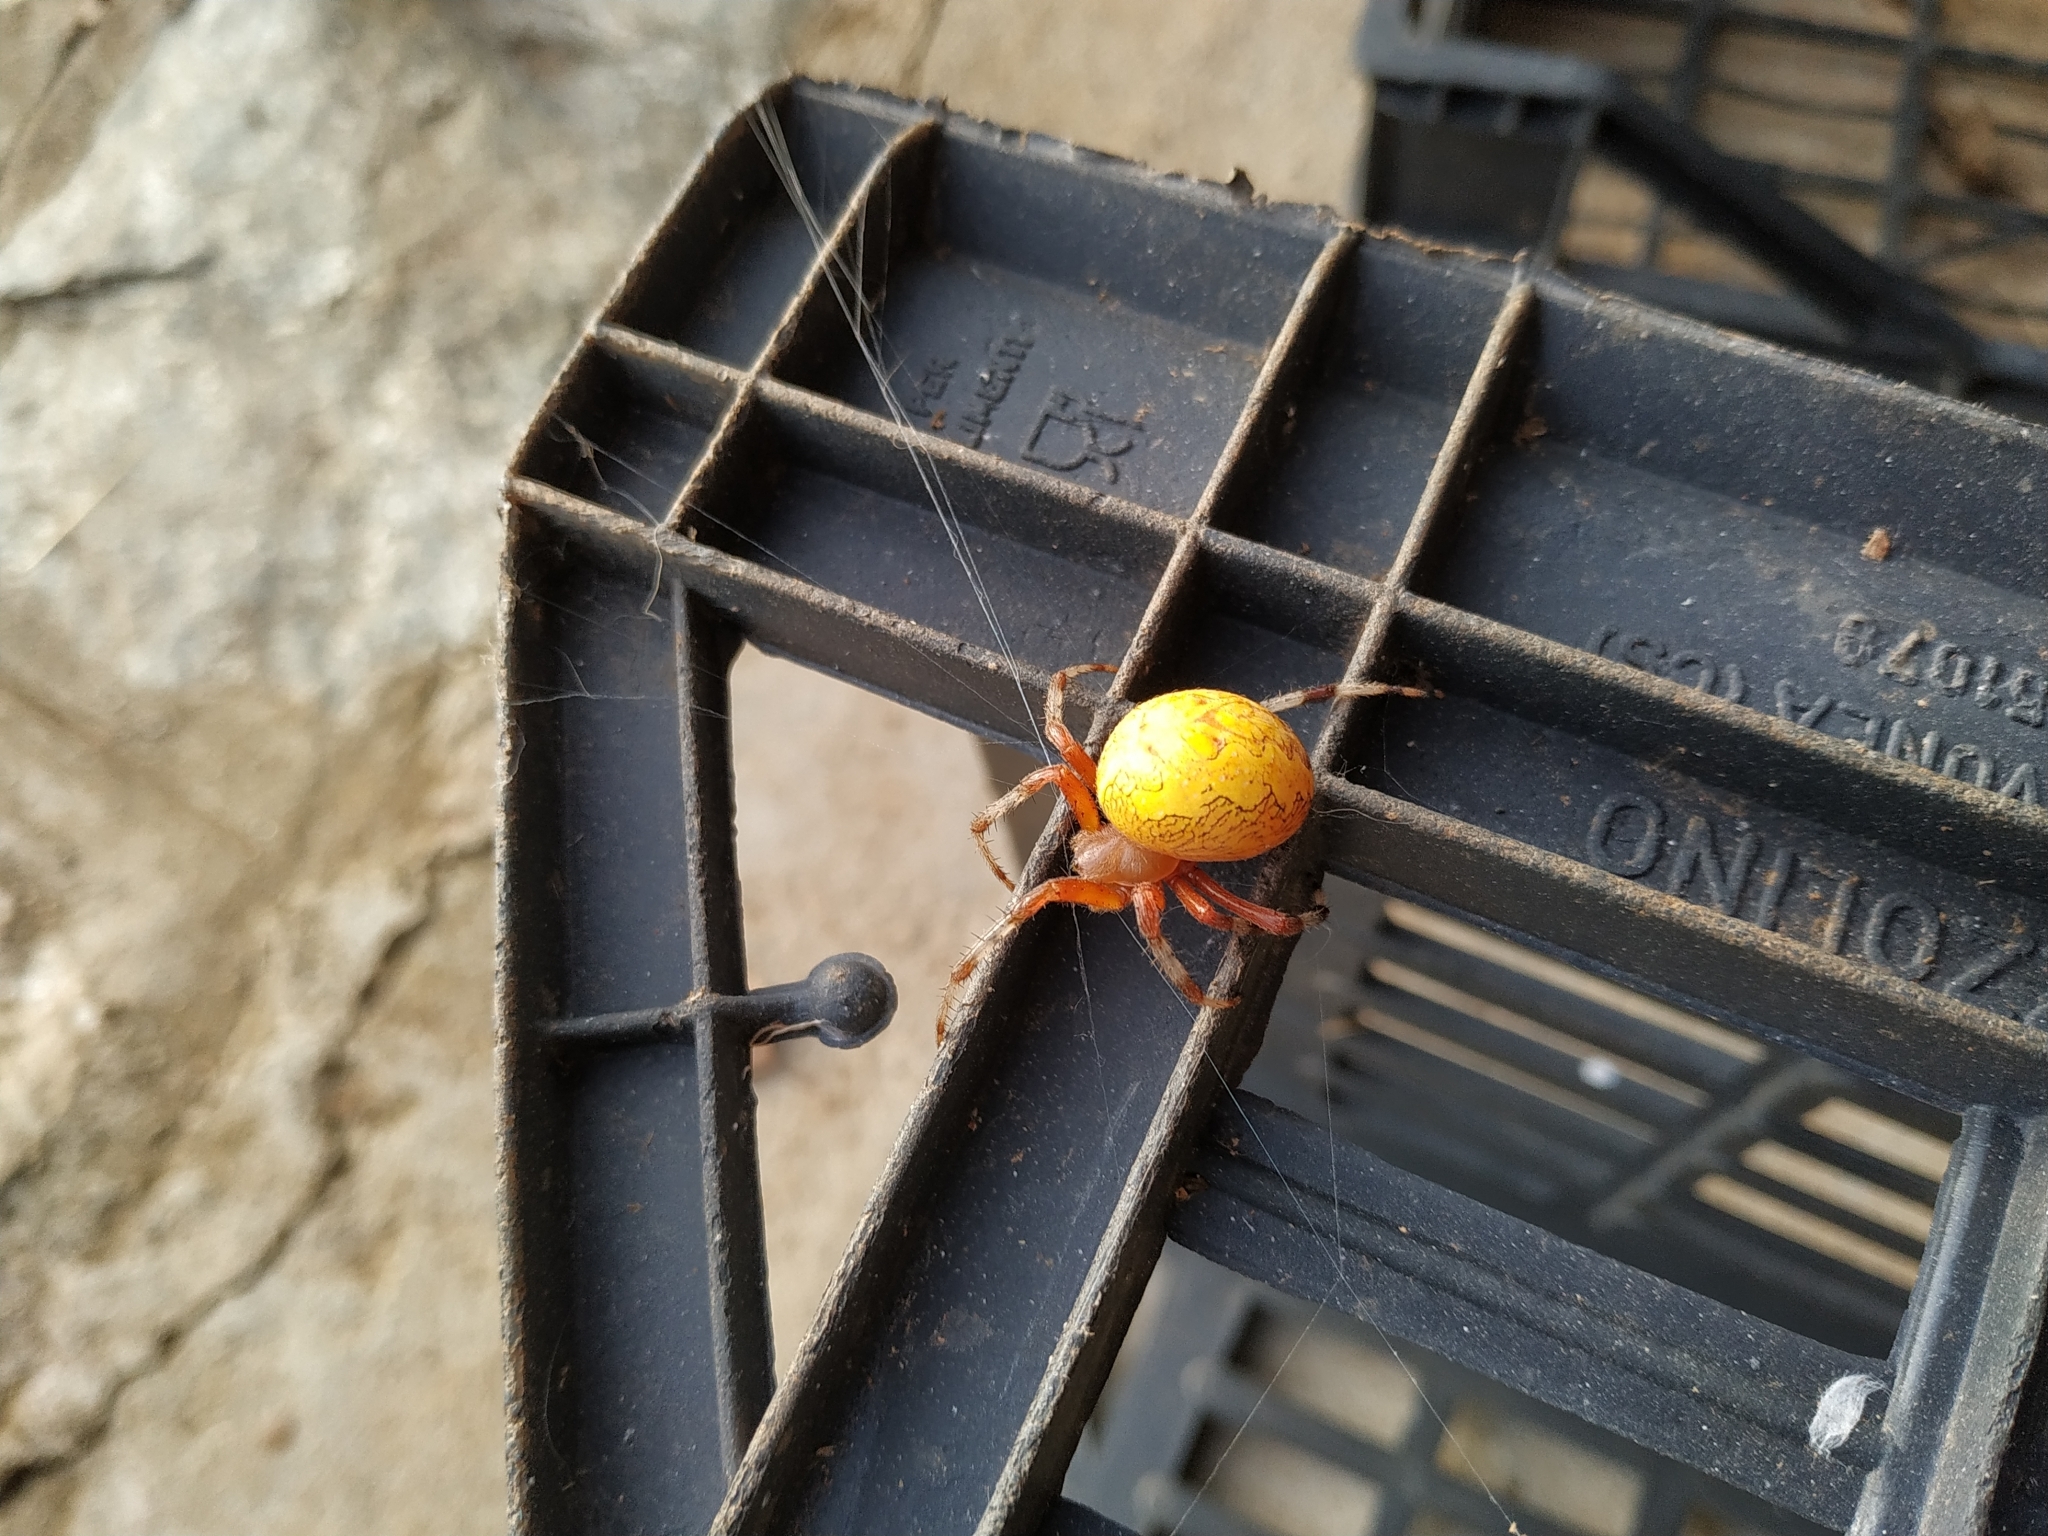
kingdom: Animalia
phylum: Arthropoda
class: Arachnida
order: Araneae
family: Araneidae
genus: Araneus
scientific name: Araneus marmoreus
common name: Marbled orbweaver
